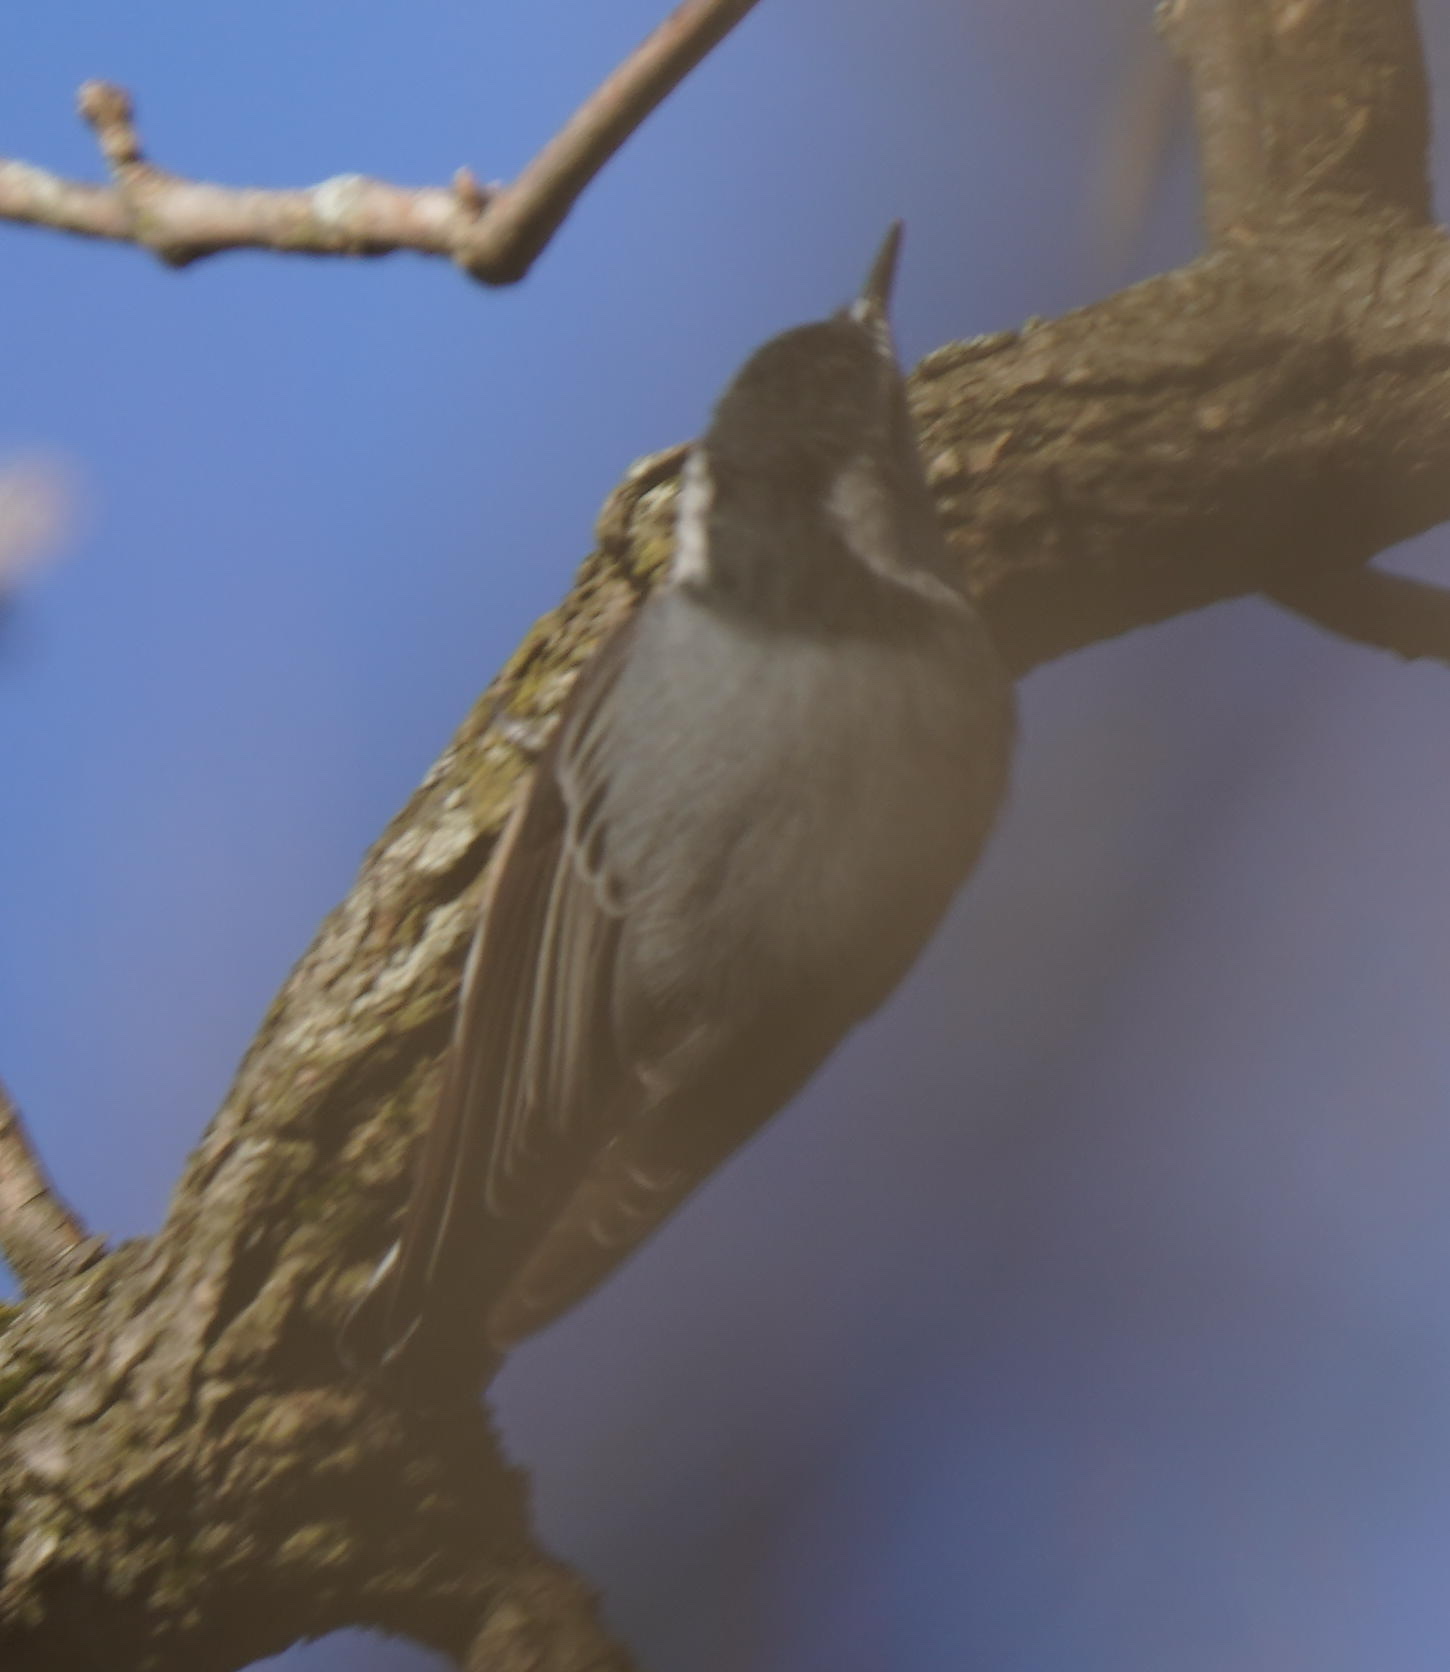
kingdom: Animalia
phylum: Chordata
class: Aves
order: Passeriformes
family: Sittidae
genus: Sitta
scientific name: Sitta carolinensis
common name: White-breasted nuthatch
